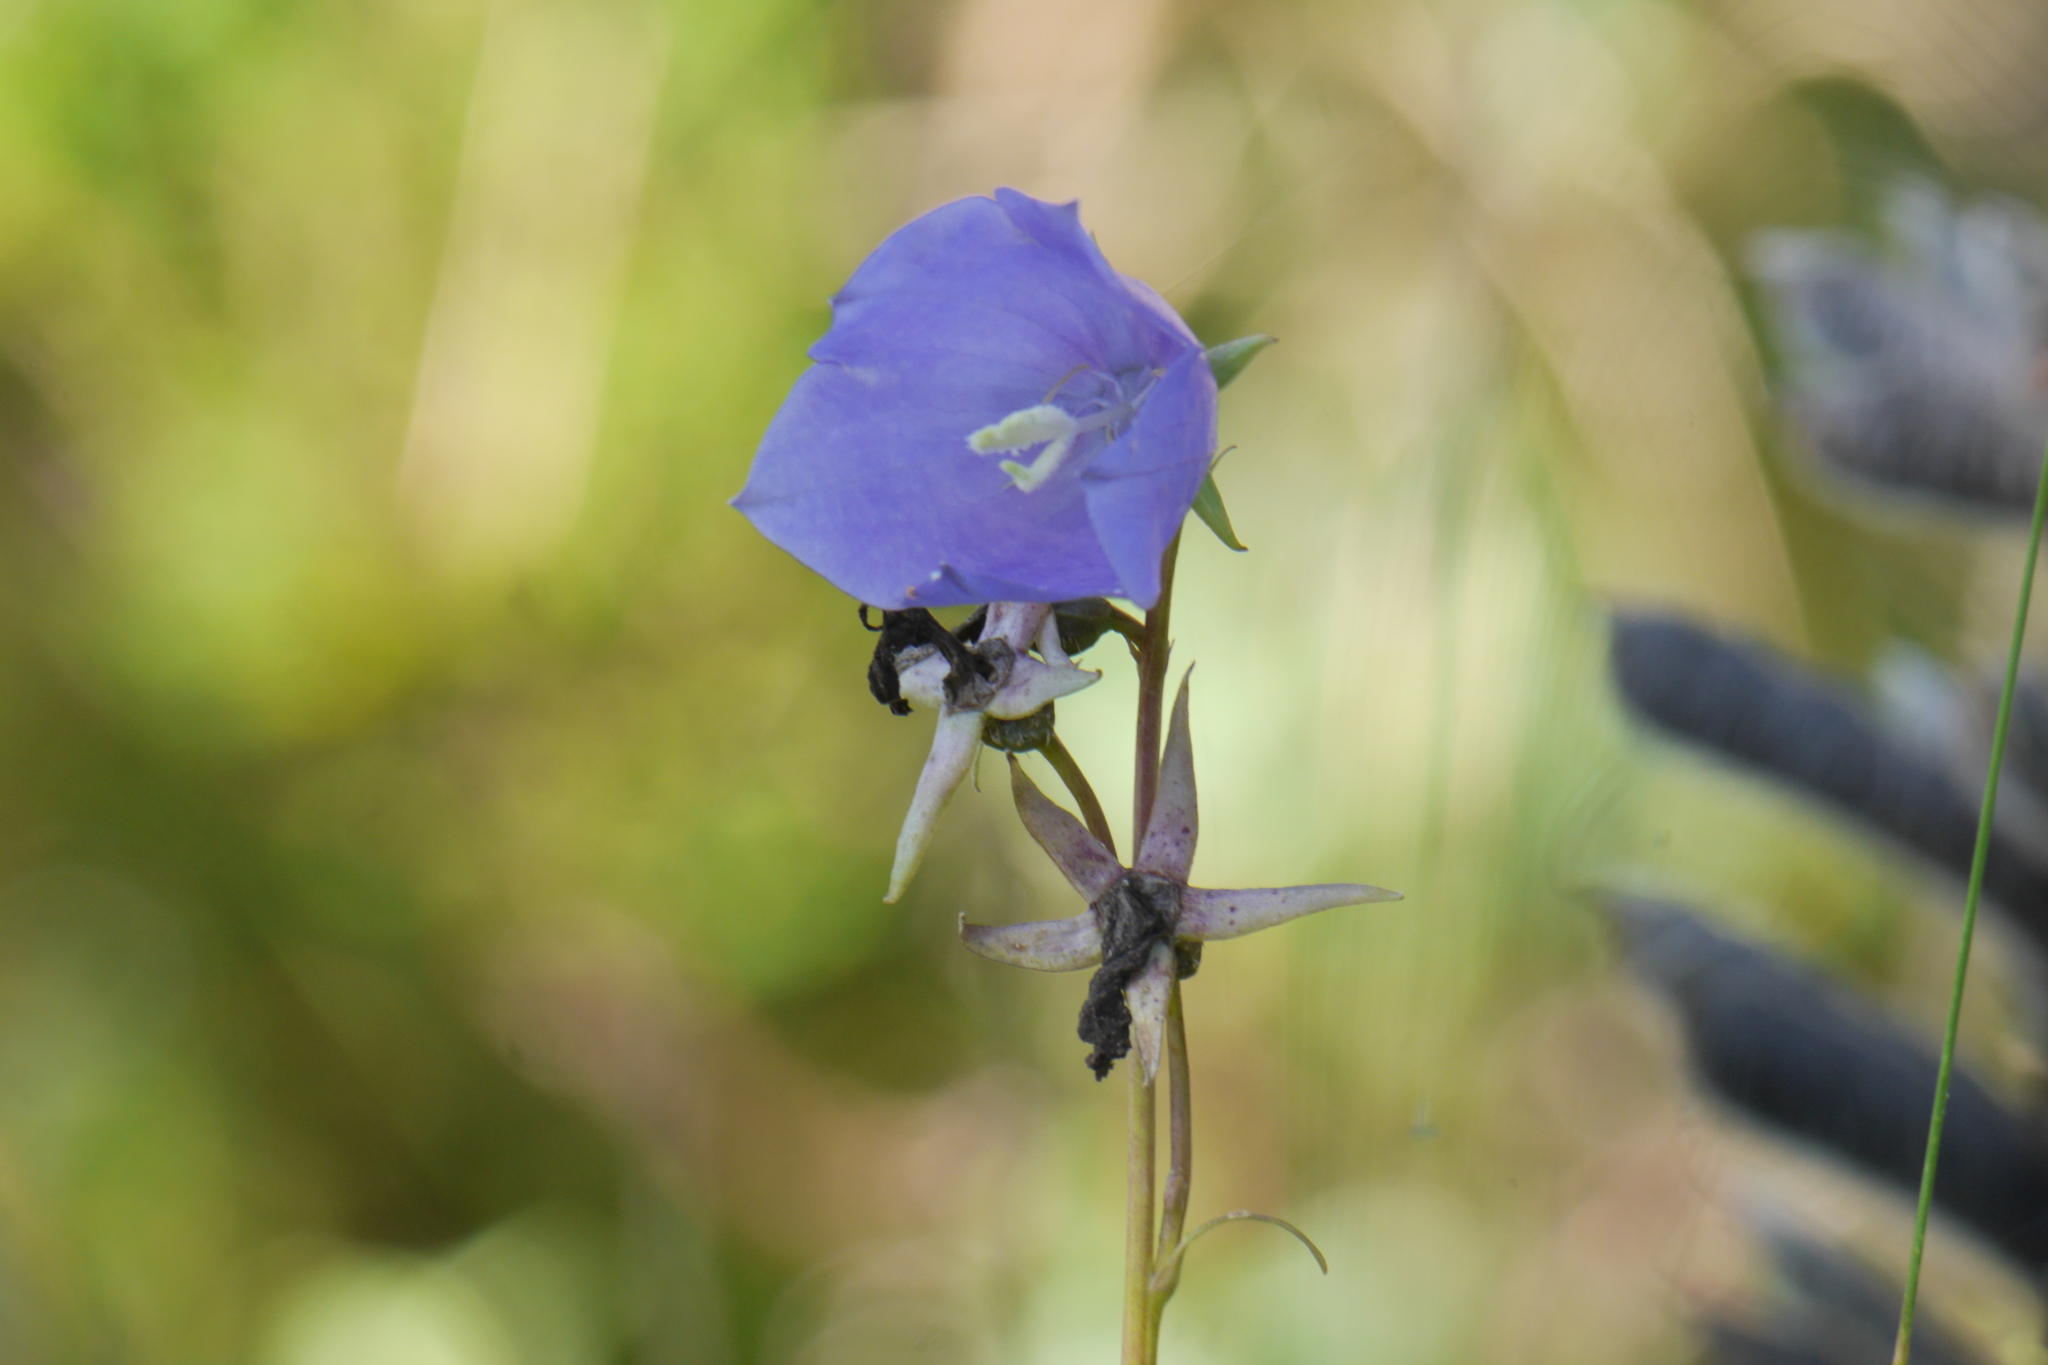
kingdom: Plantae
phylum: Tracheophyta
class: Magnoliopsida
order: Asterales
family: Campanulaceae
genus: Campanula
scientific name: Campanula persicifolia
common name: Peach-leaved bellflower
